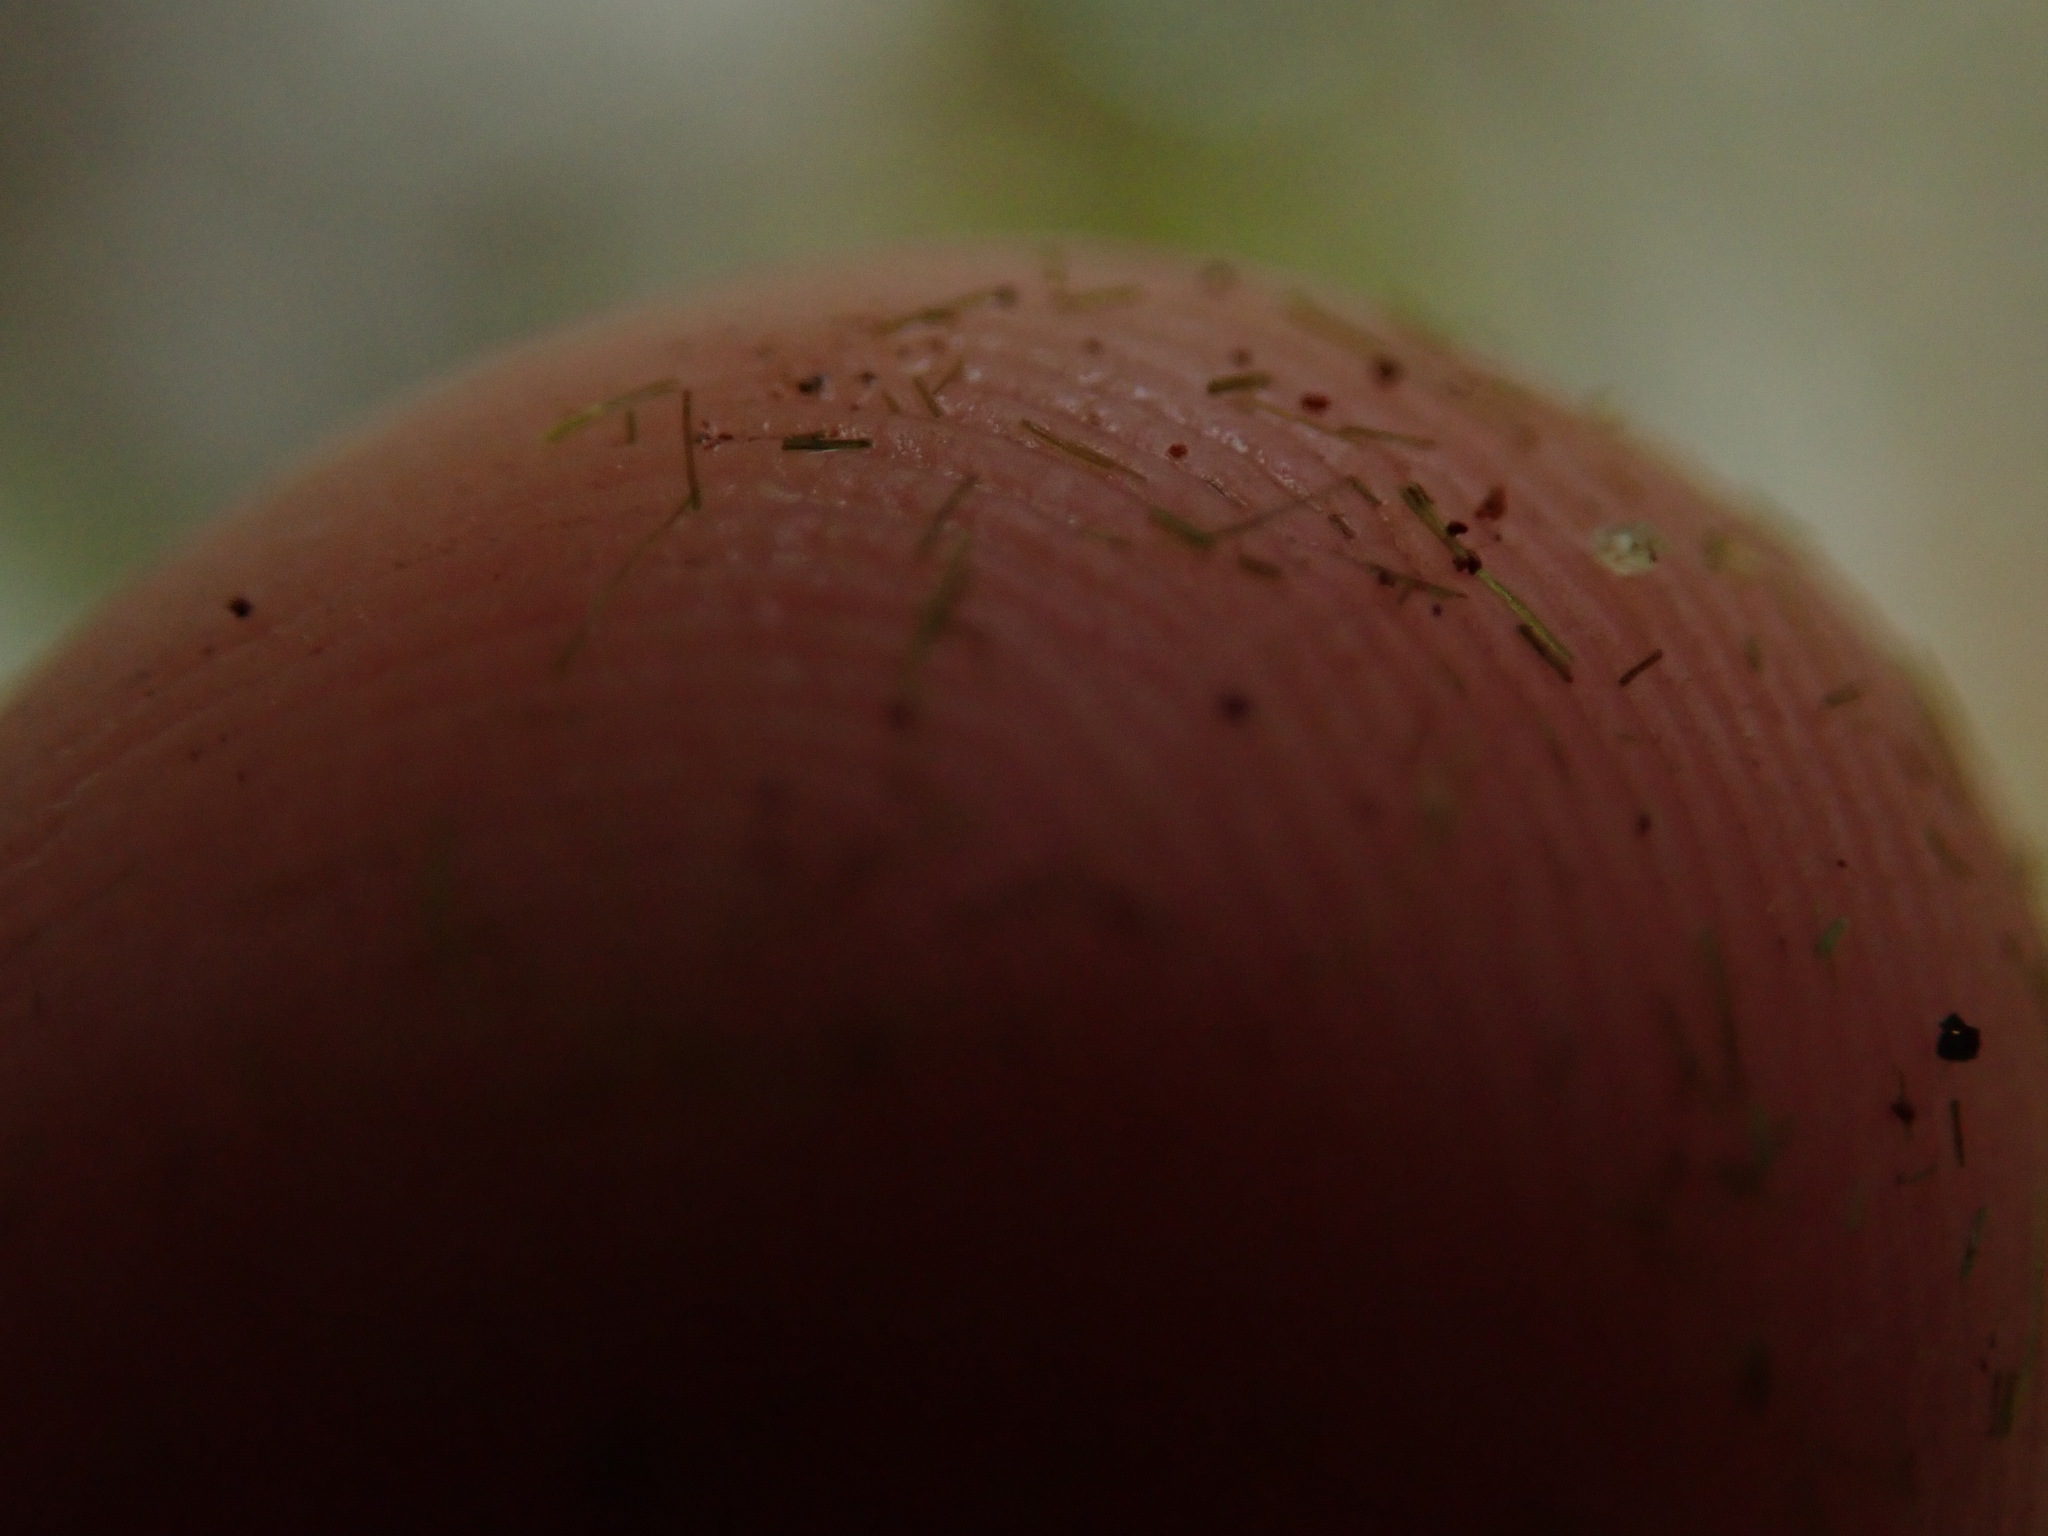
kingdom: Plantae
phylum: Bryophyta
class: Bryopsida
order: Dicranales
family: Dicranaceae
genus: Orthodicranum
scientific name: Orthodicranum tauricum
